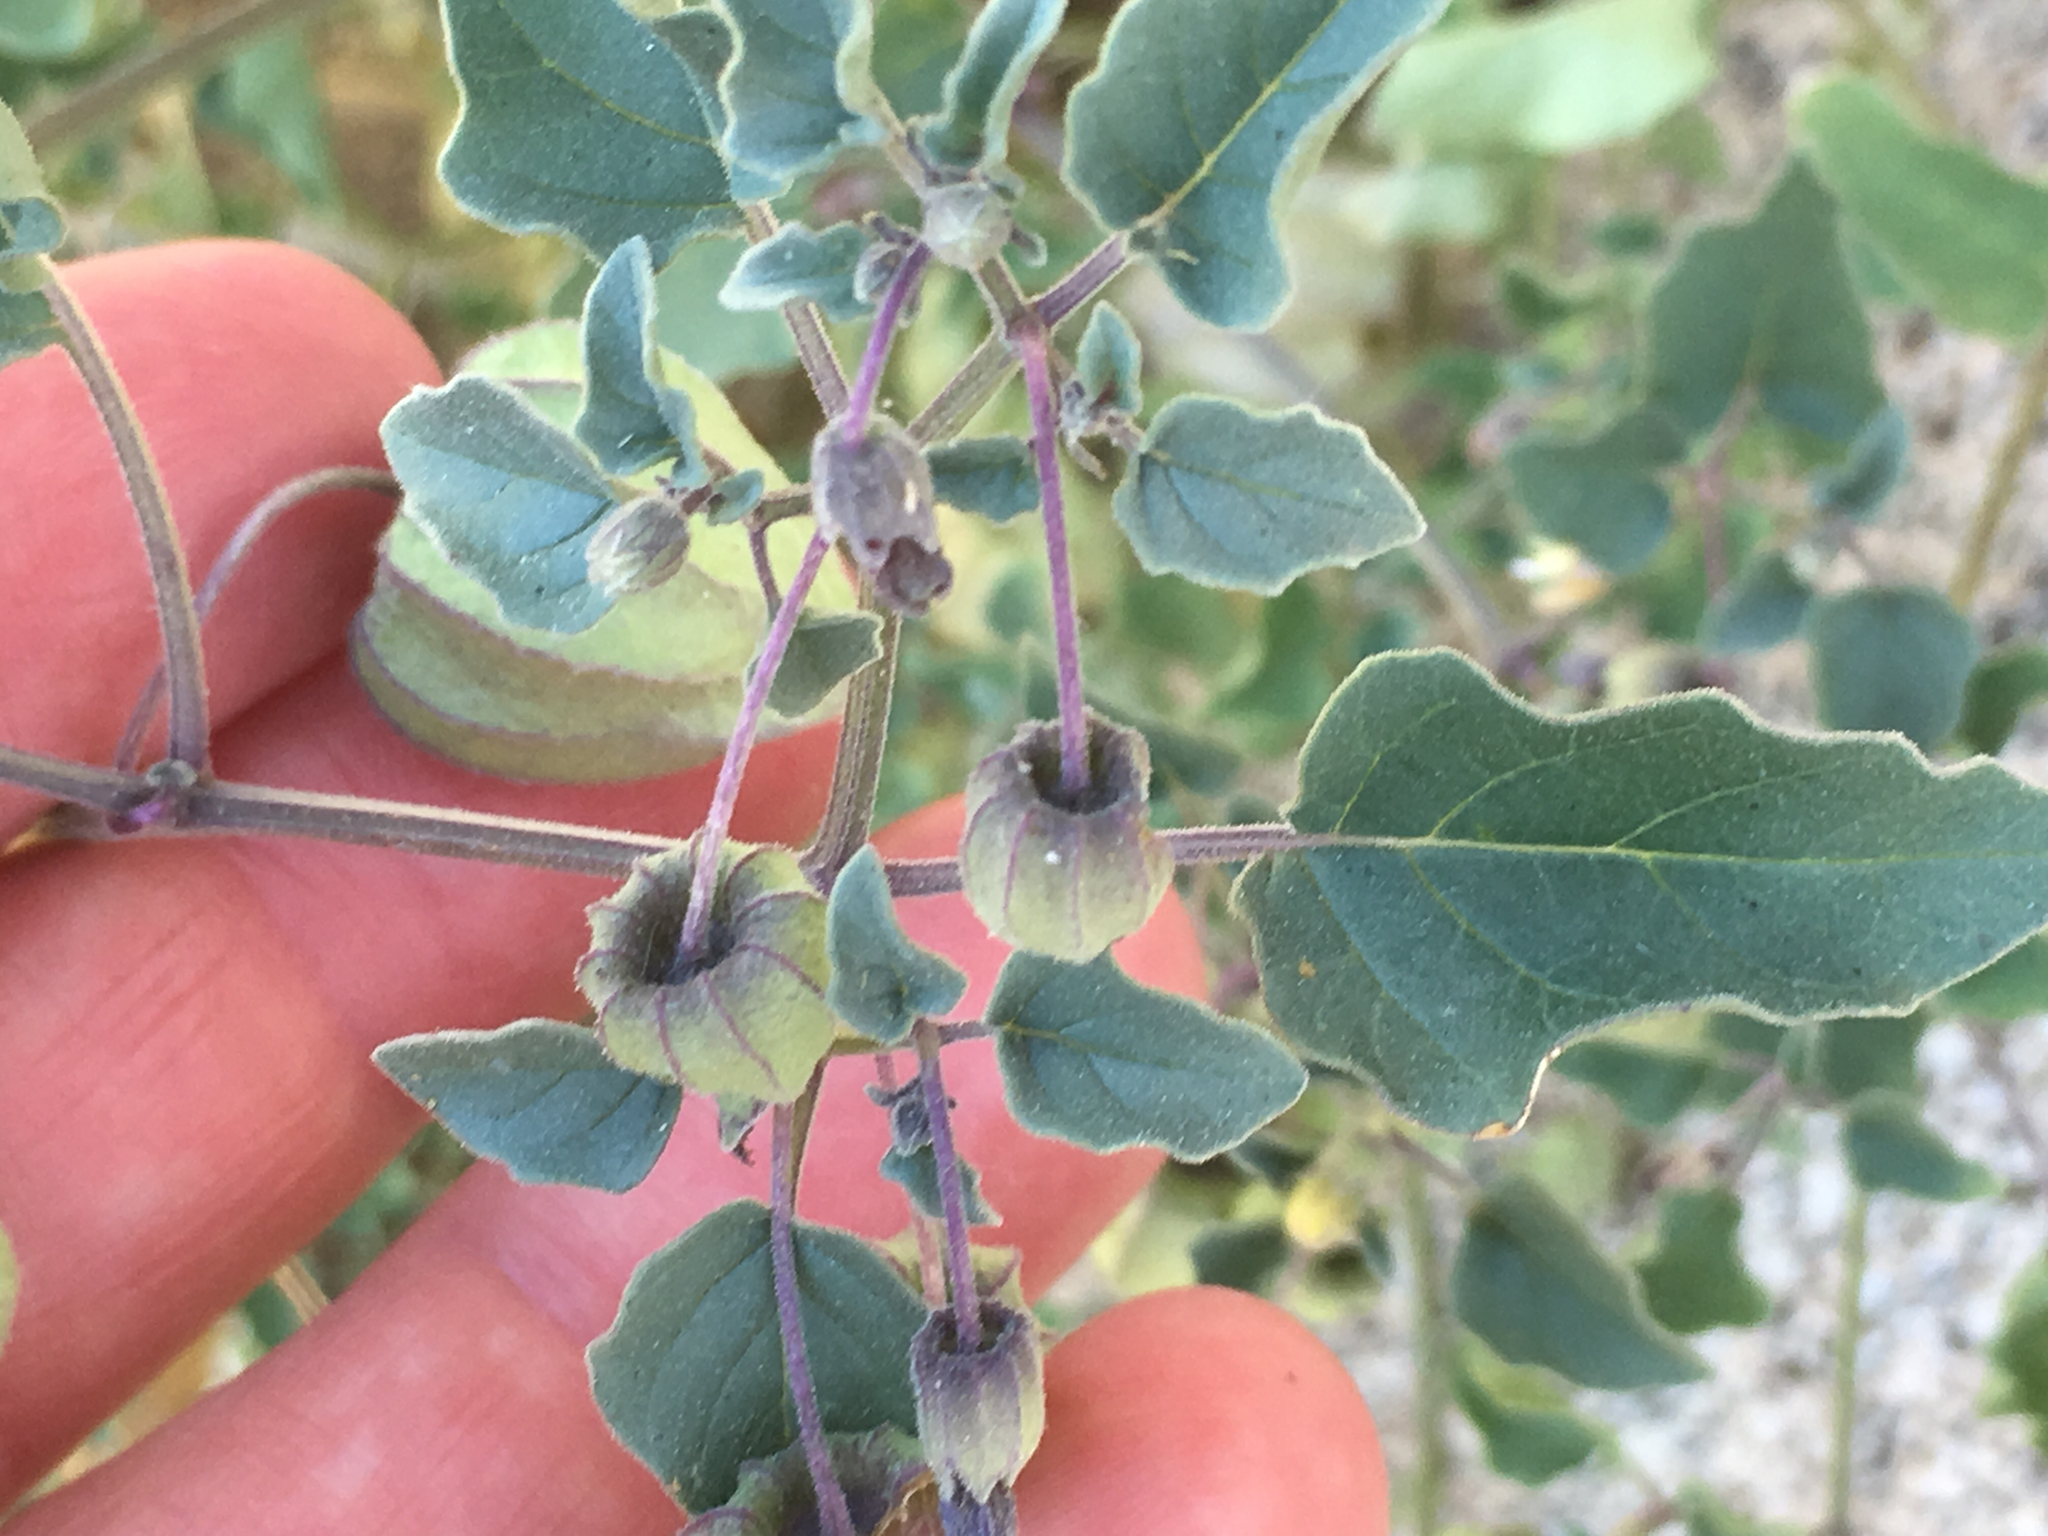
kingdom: Plantae
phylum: Tracheophyta
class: Magnoliopsida
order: Solanales
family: Solanaceae
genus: Physalis
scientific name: Physalis crassifolia
